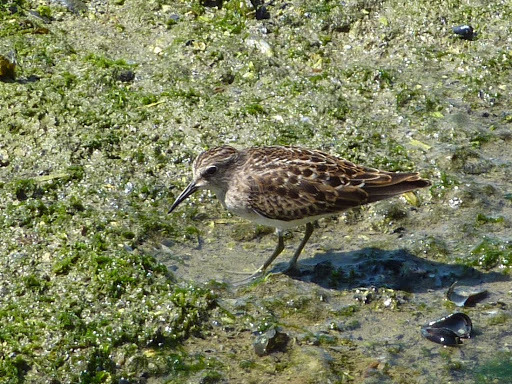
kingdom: Animalia
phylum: Chordata
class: Aves
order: Charadriiformes
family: Scolopacidae
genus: Calidris
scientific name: Calidris minutilla
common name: Least sandpiper
